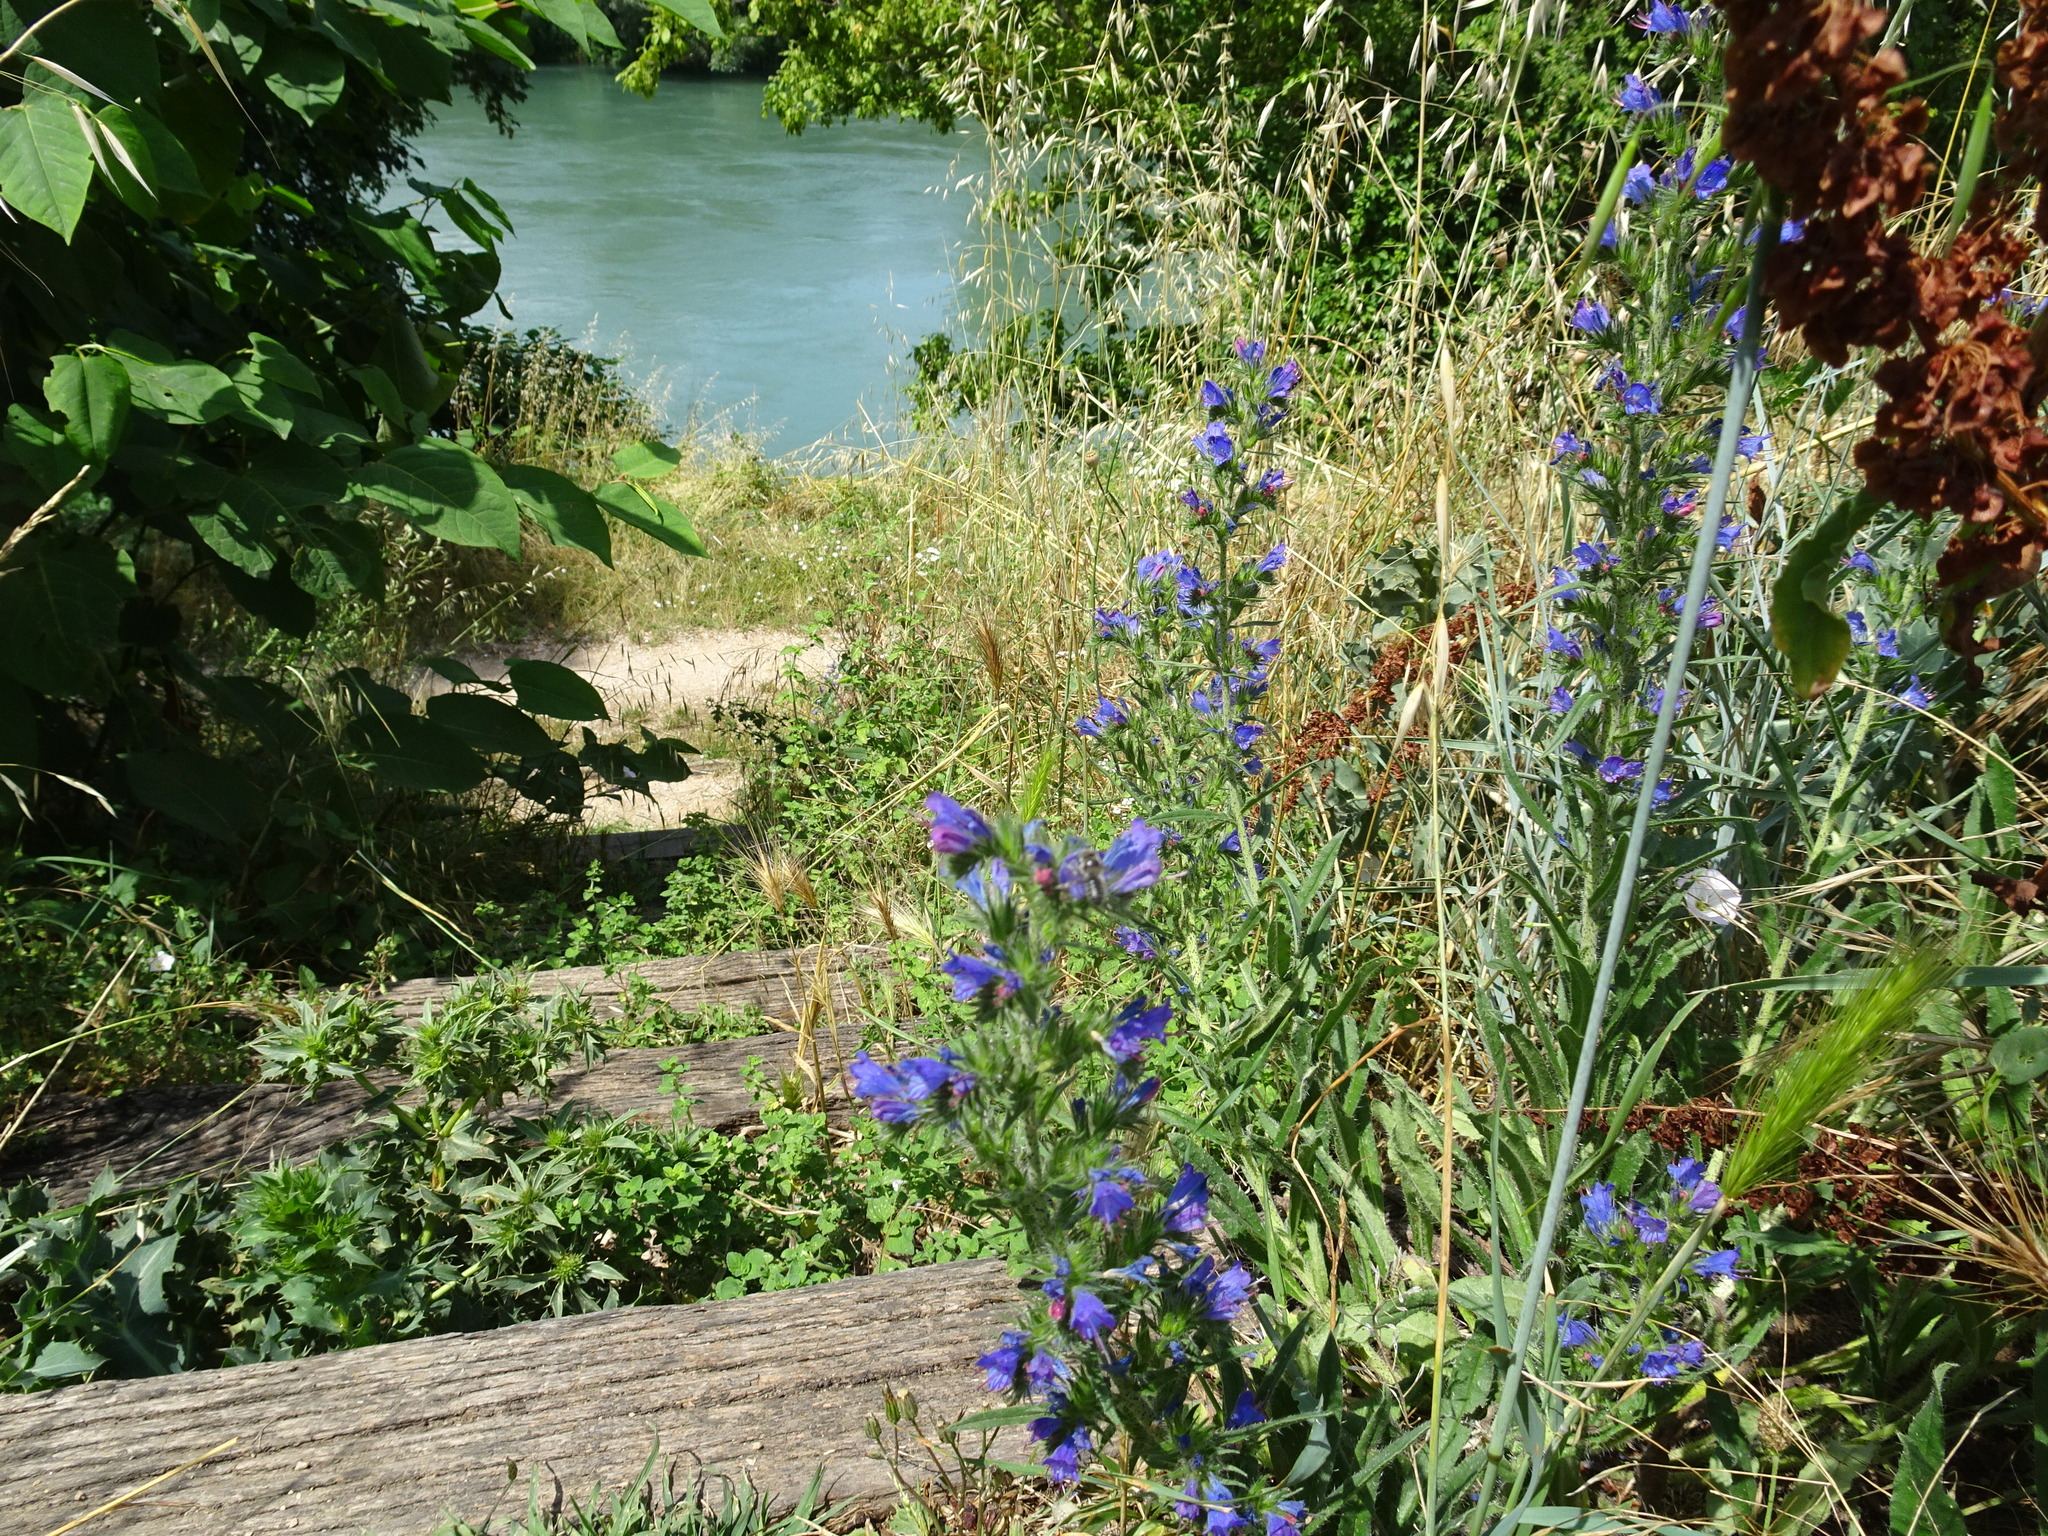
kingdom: Plantae
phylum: Tracheophyta
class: Magnoliopsida
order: Boraginales
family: Boraginaceae
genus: Echium
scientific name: Echium vulgare
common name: Common viper's bugloss
